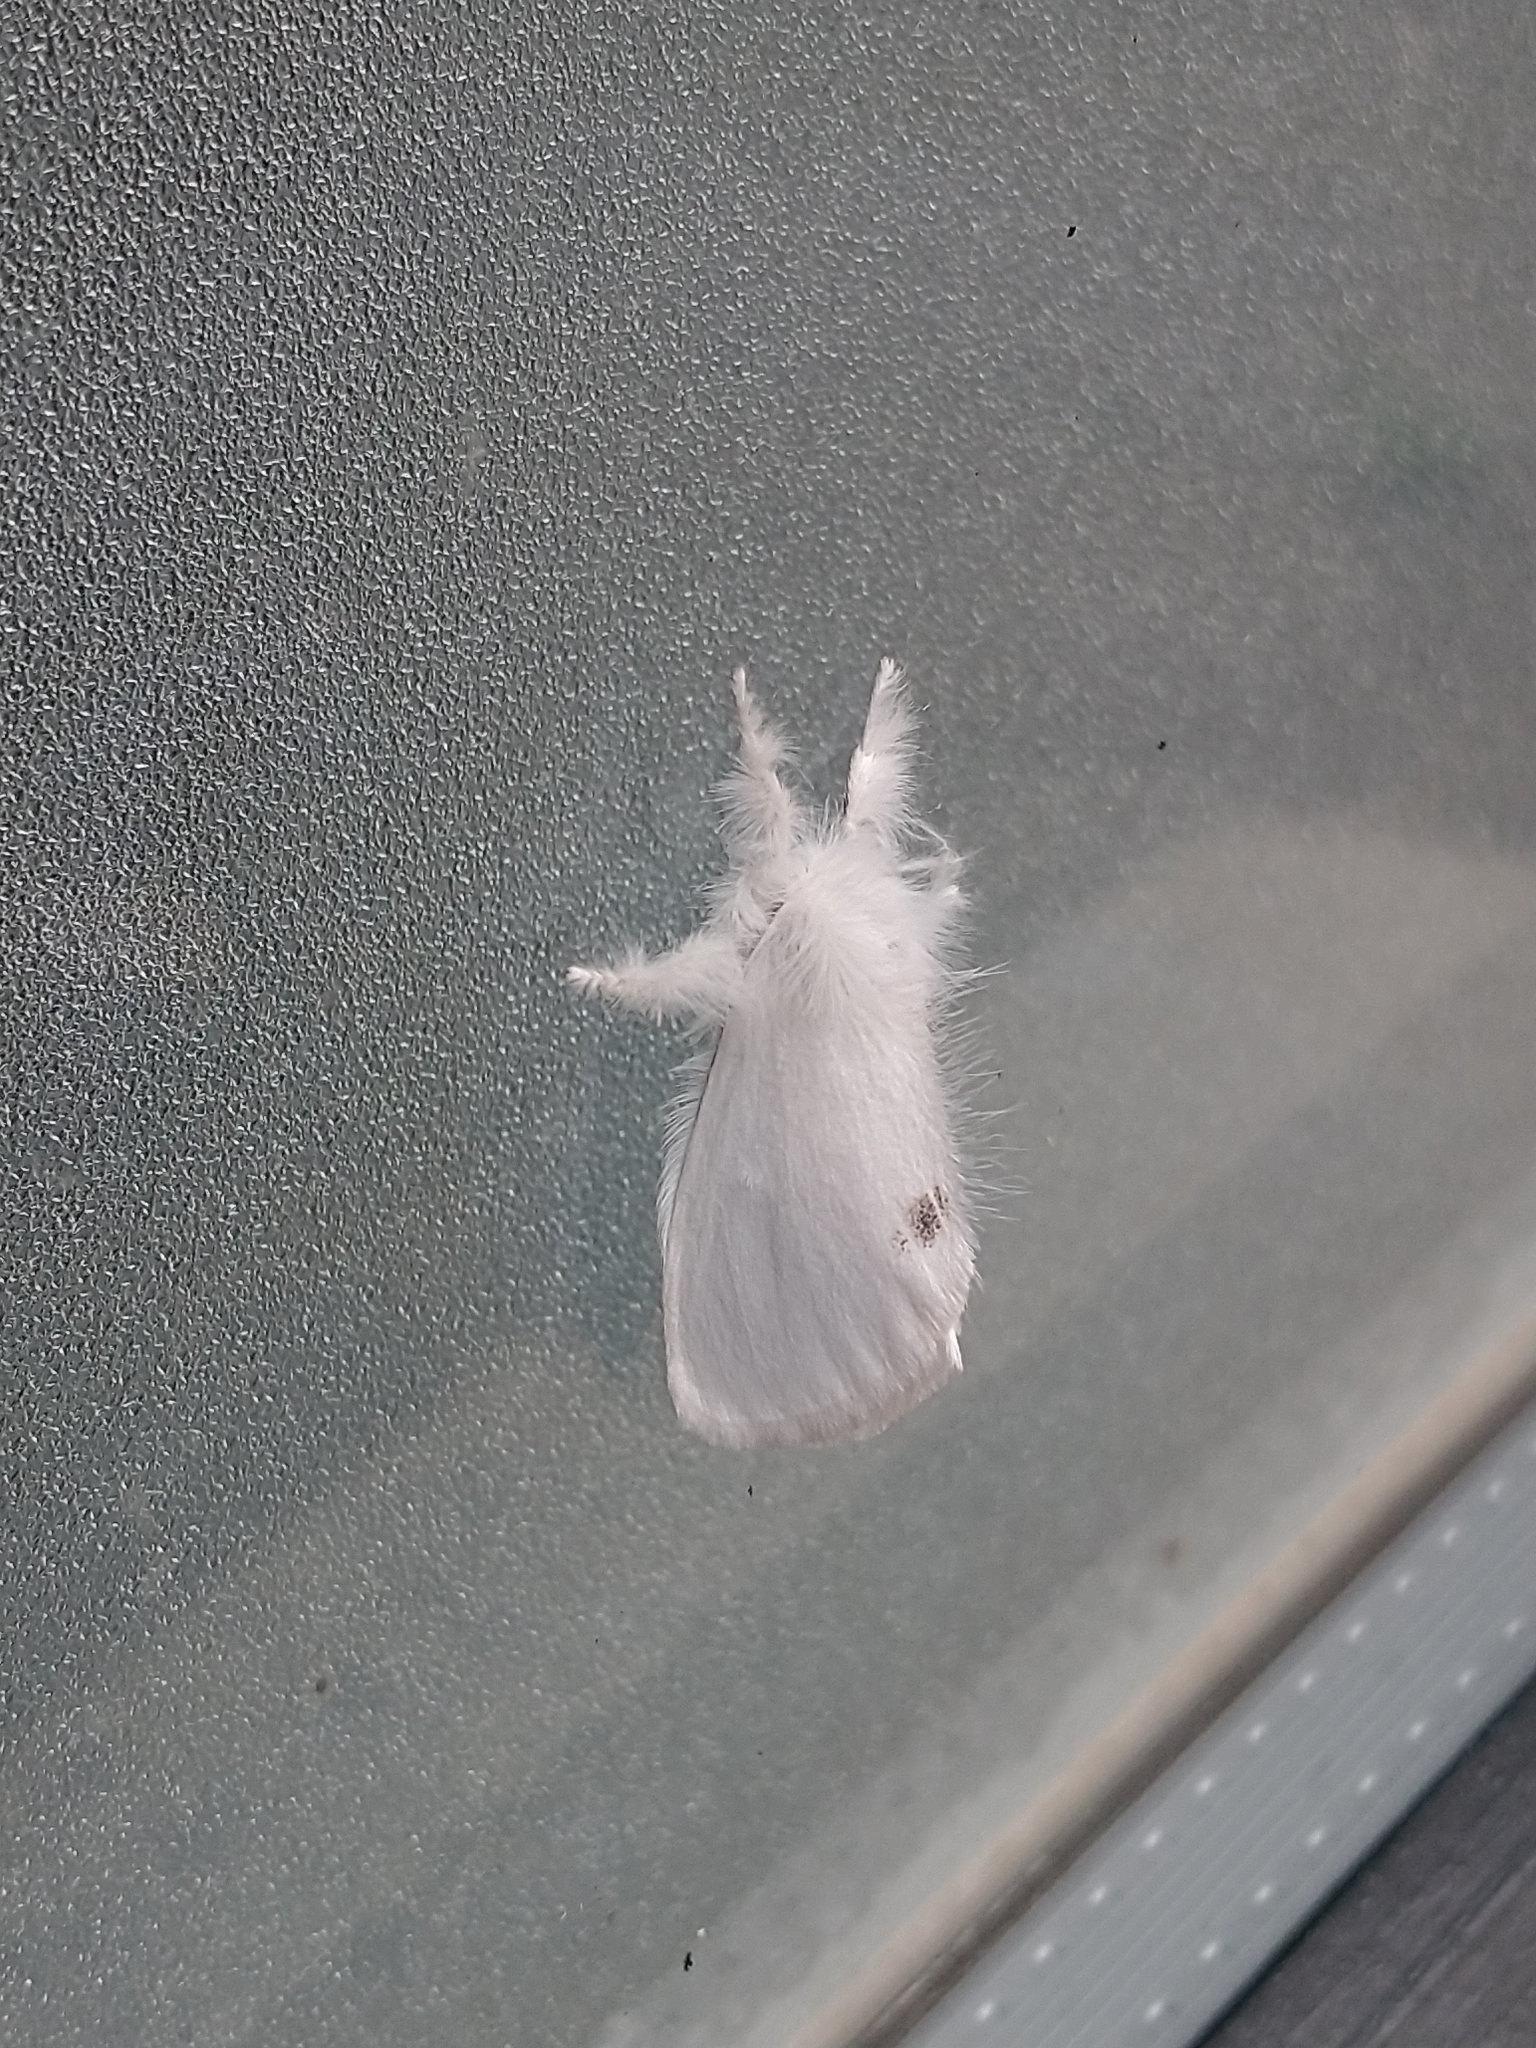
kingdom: Animalia
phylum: Arthropoda
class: Insecta
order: Lepidoptera
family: Erebidae
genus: Sphrageidus
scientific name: Sphrageidus similis
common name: Yellow-tail
